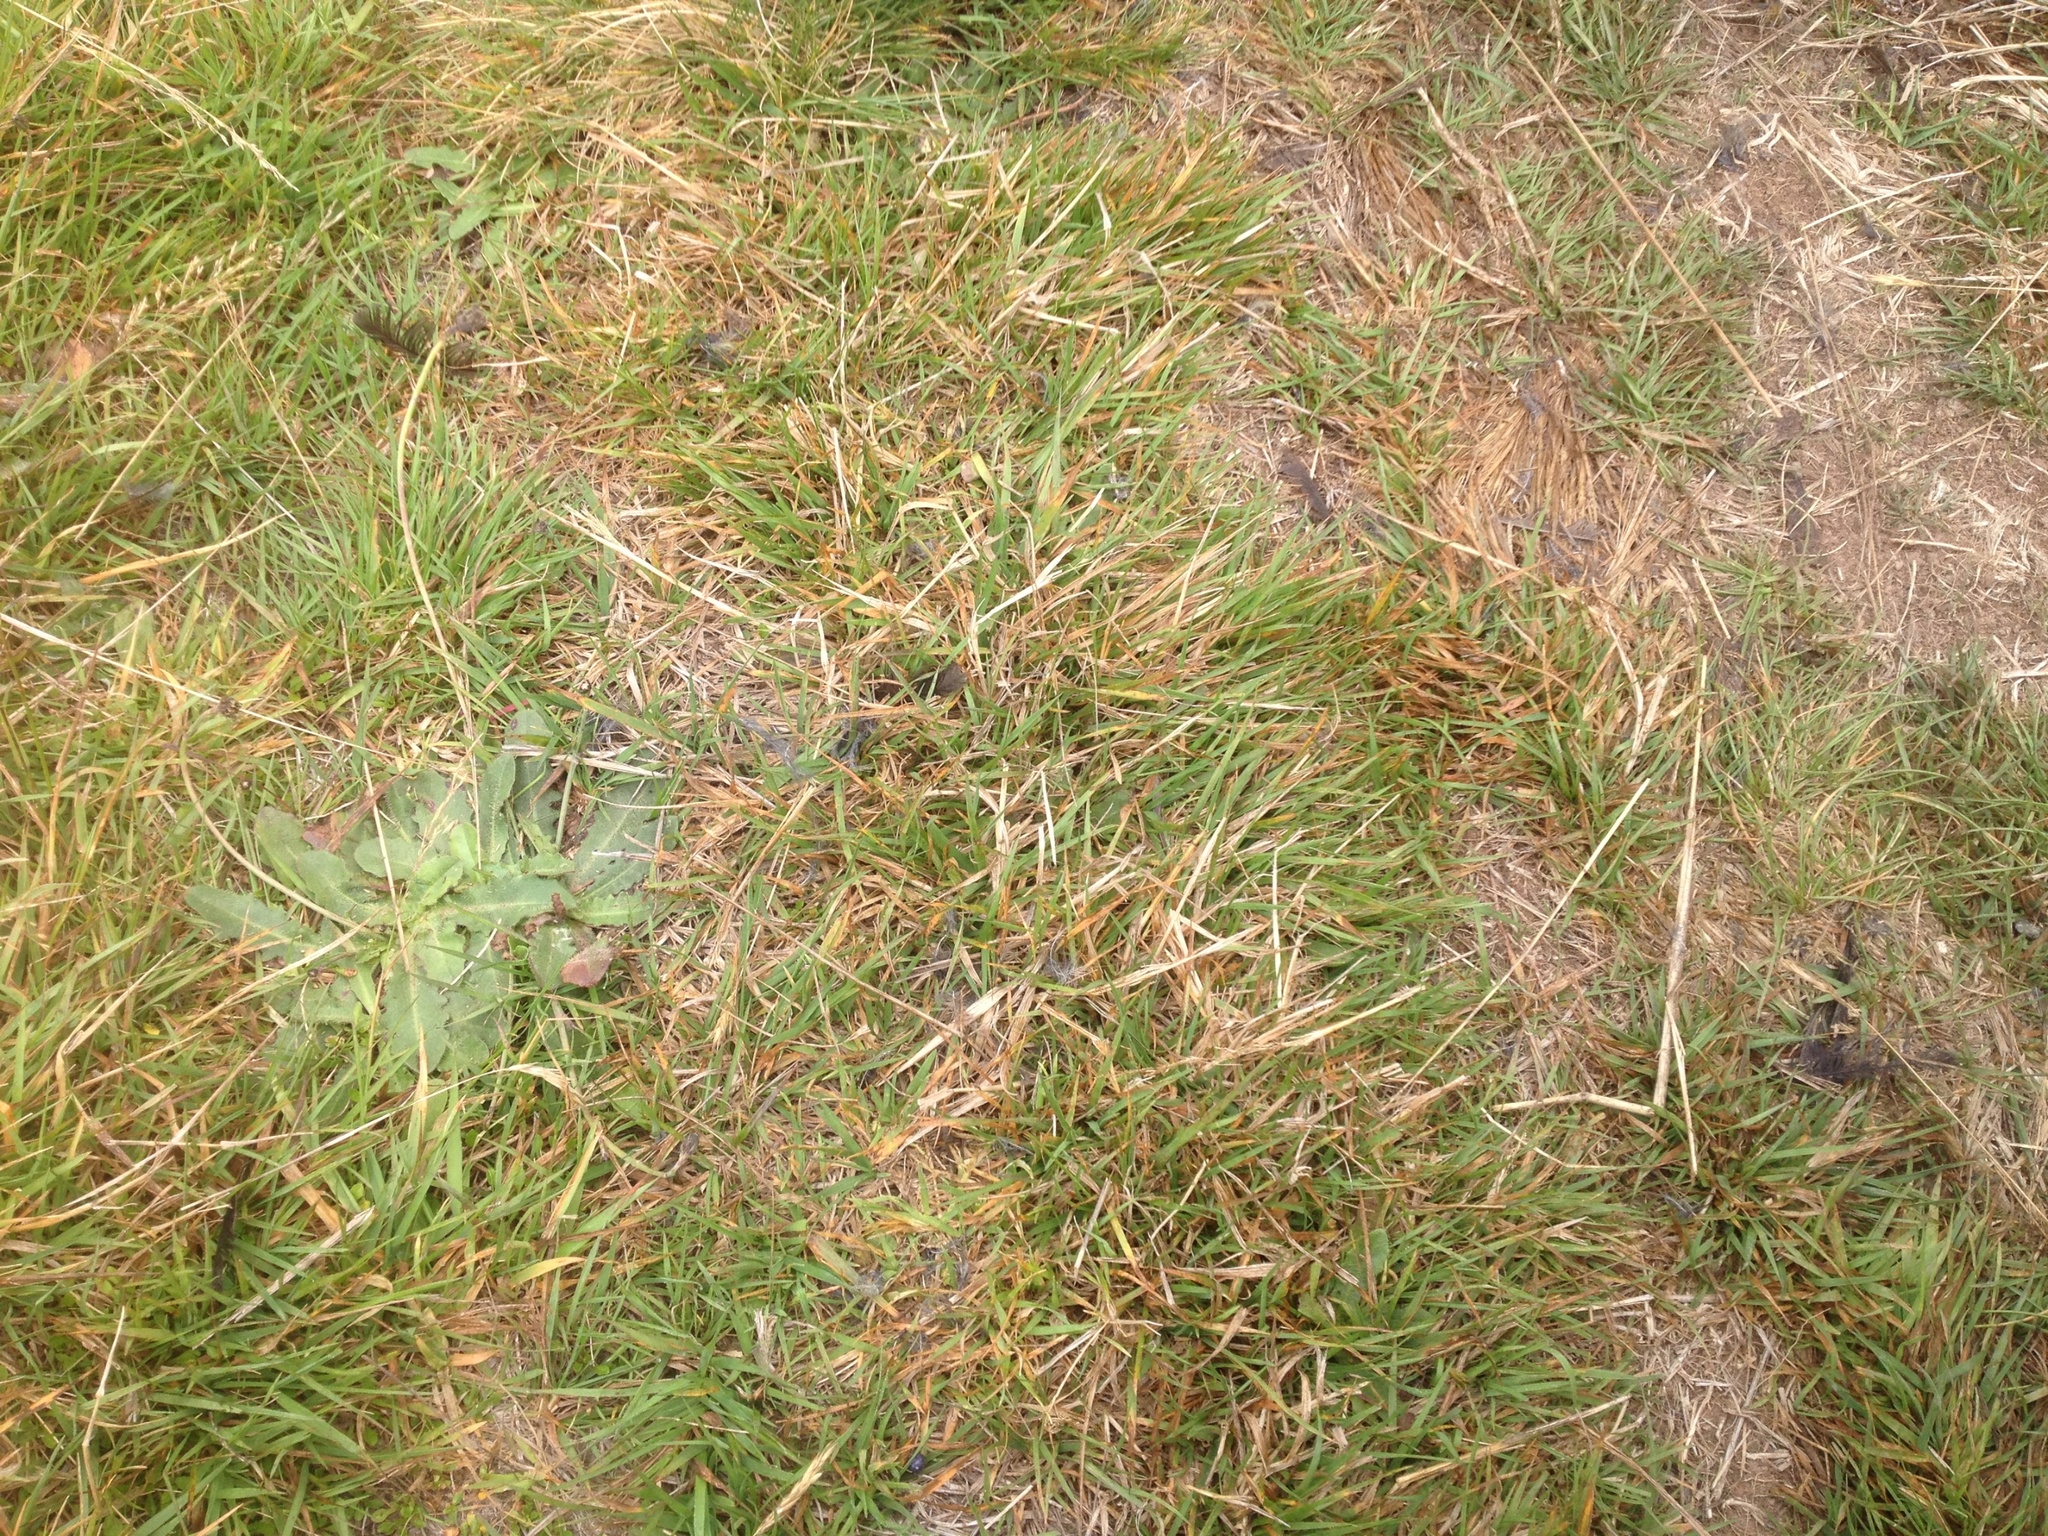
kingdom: Animalia
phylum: Chordata
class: Aves
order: Passeriformes
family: Turdidae
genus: Turdus
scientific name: Turdus merula
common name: Common blackbird
